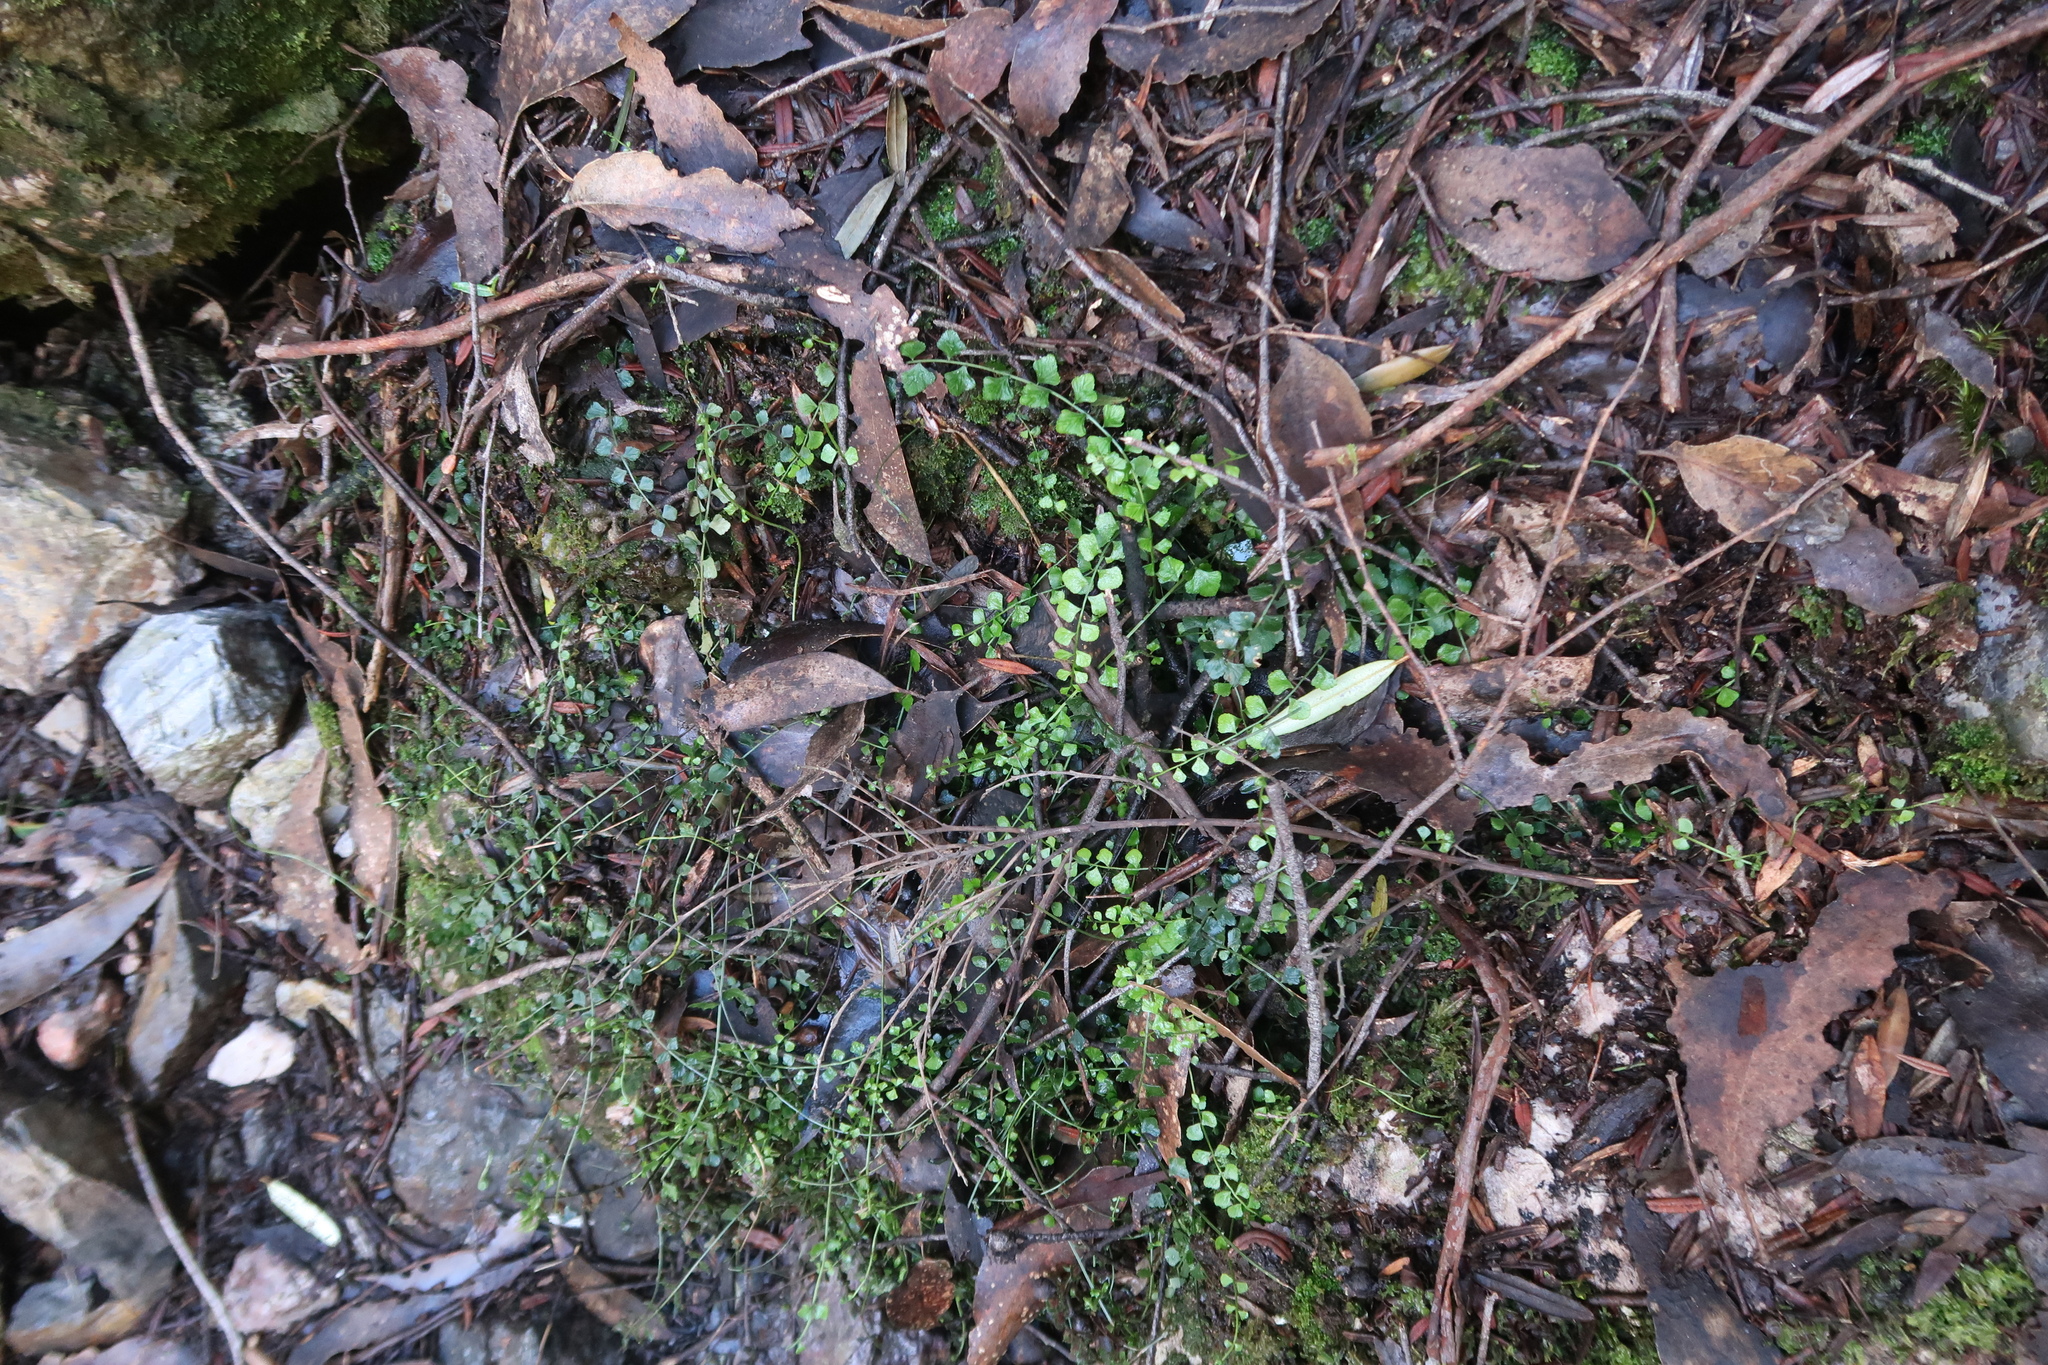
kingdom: Plantae
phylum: Tracheophyta
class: Polypodiopsida
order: Polypodiales
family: Aspleniaceae
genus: Asplenium
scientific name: Asplenium flabellifolium
